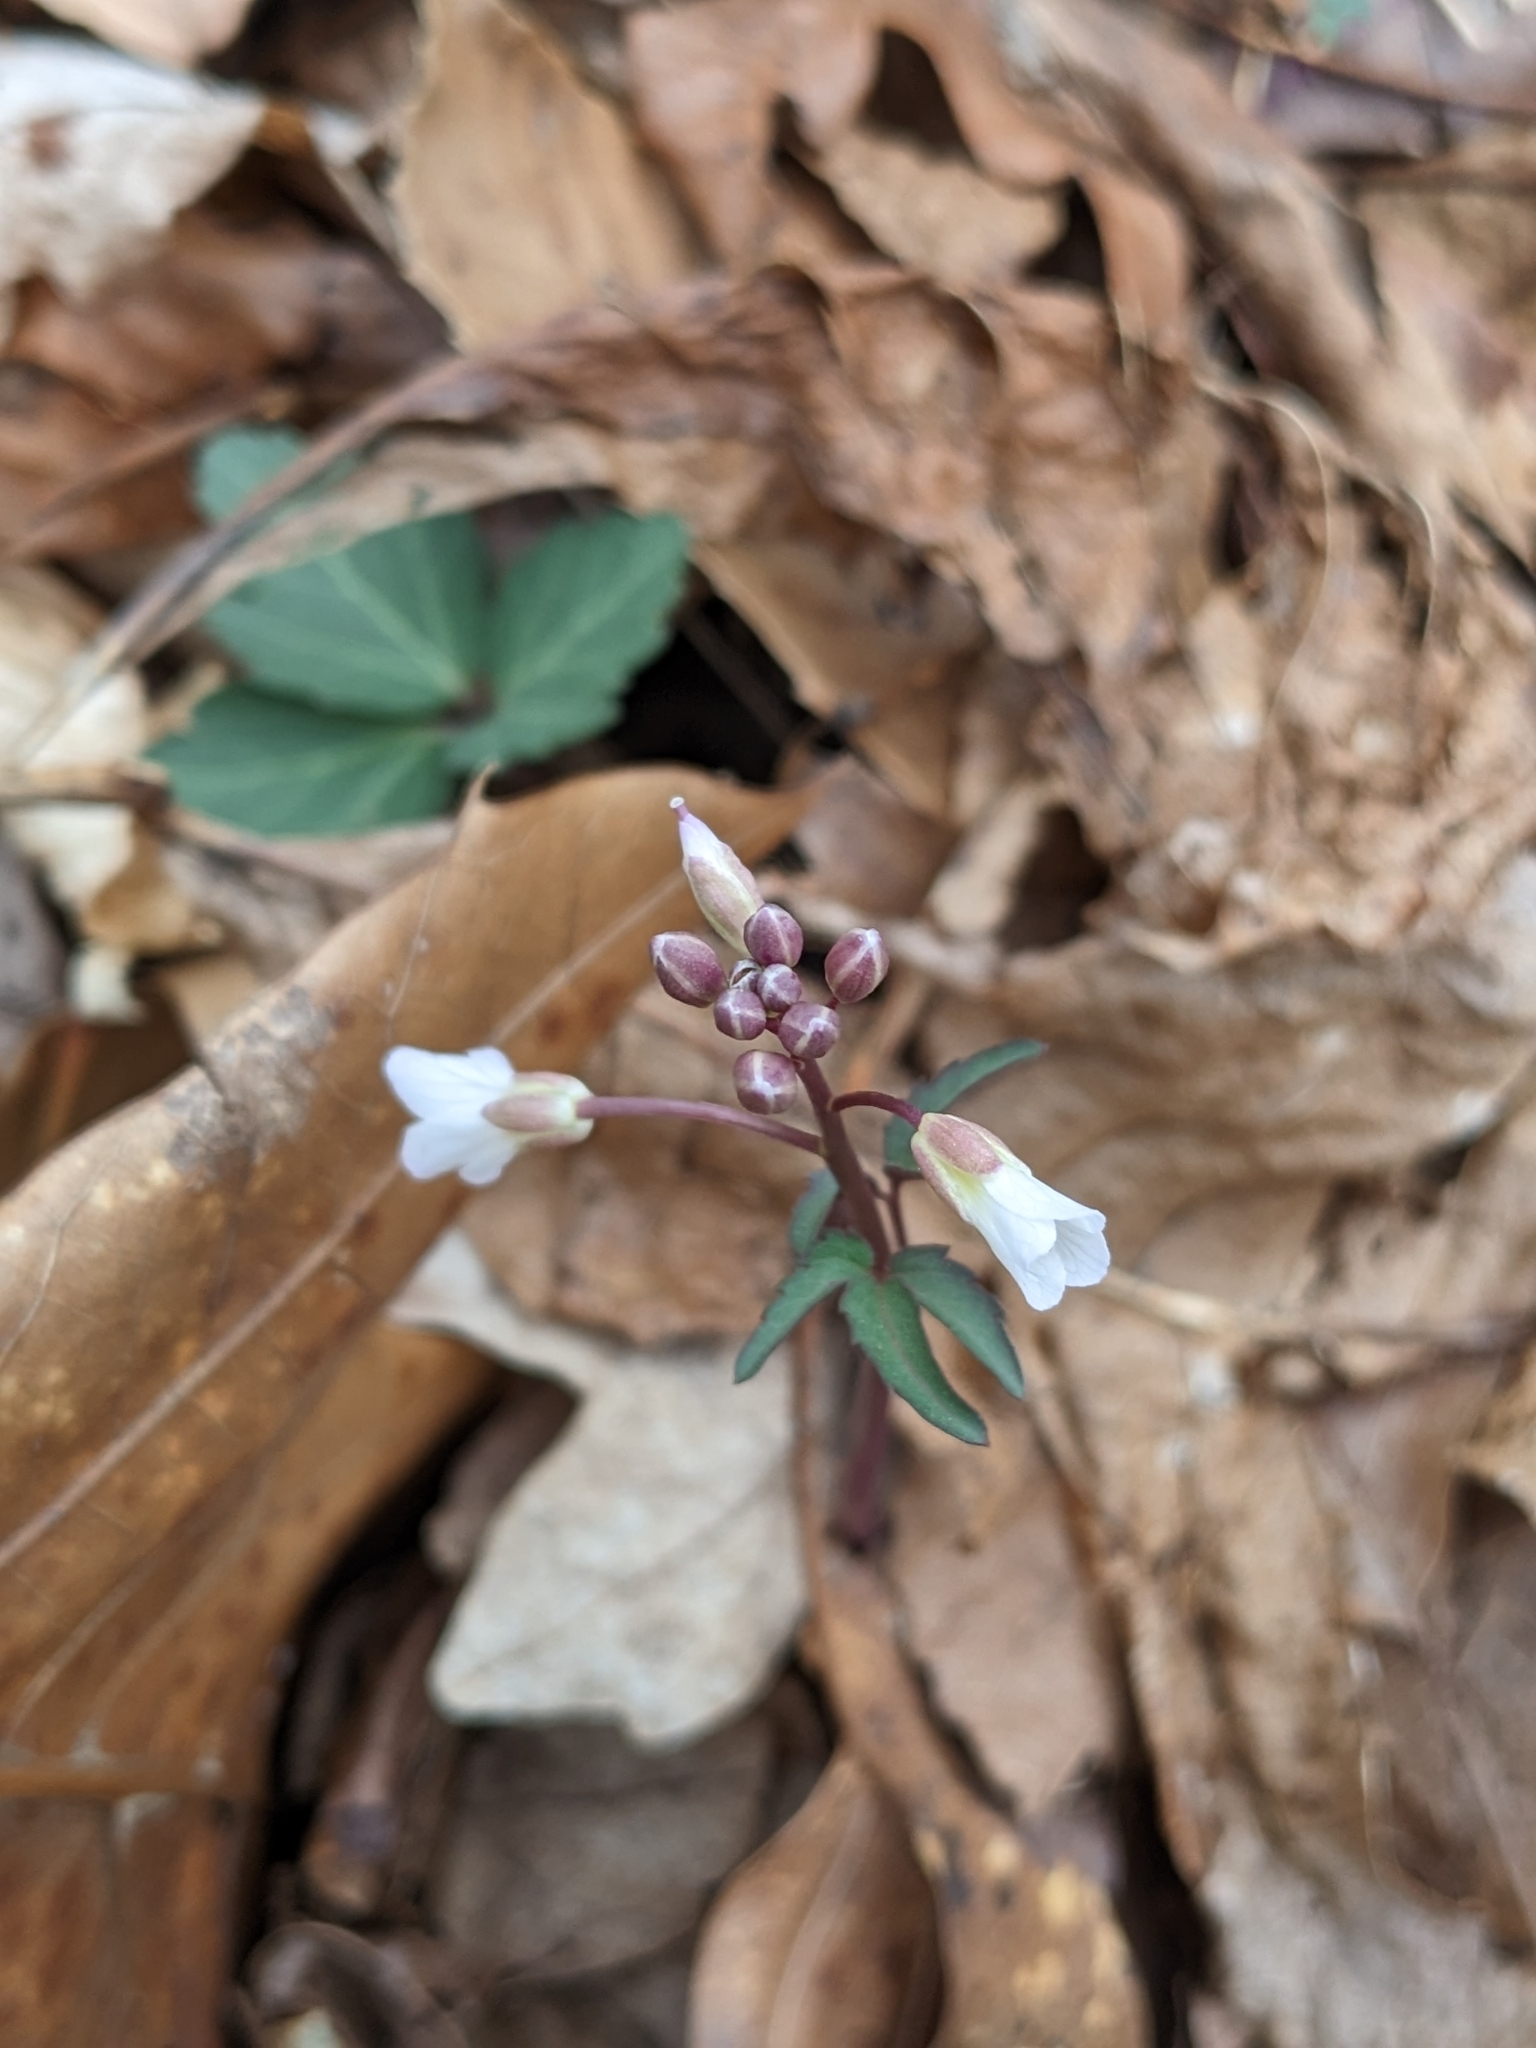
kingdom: Plantae
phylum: Tracheophyta
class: Magnoliopsida
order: Brassicales
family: Brassicaceae
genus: Cardamine
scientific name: Cardamine angustata
